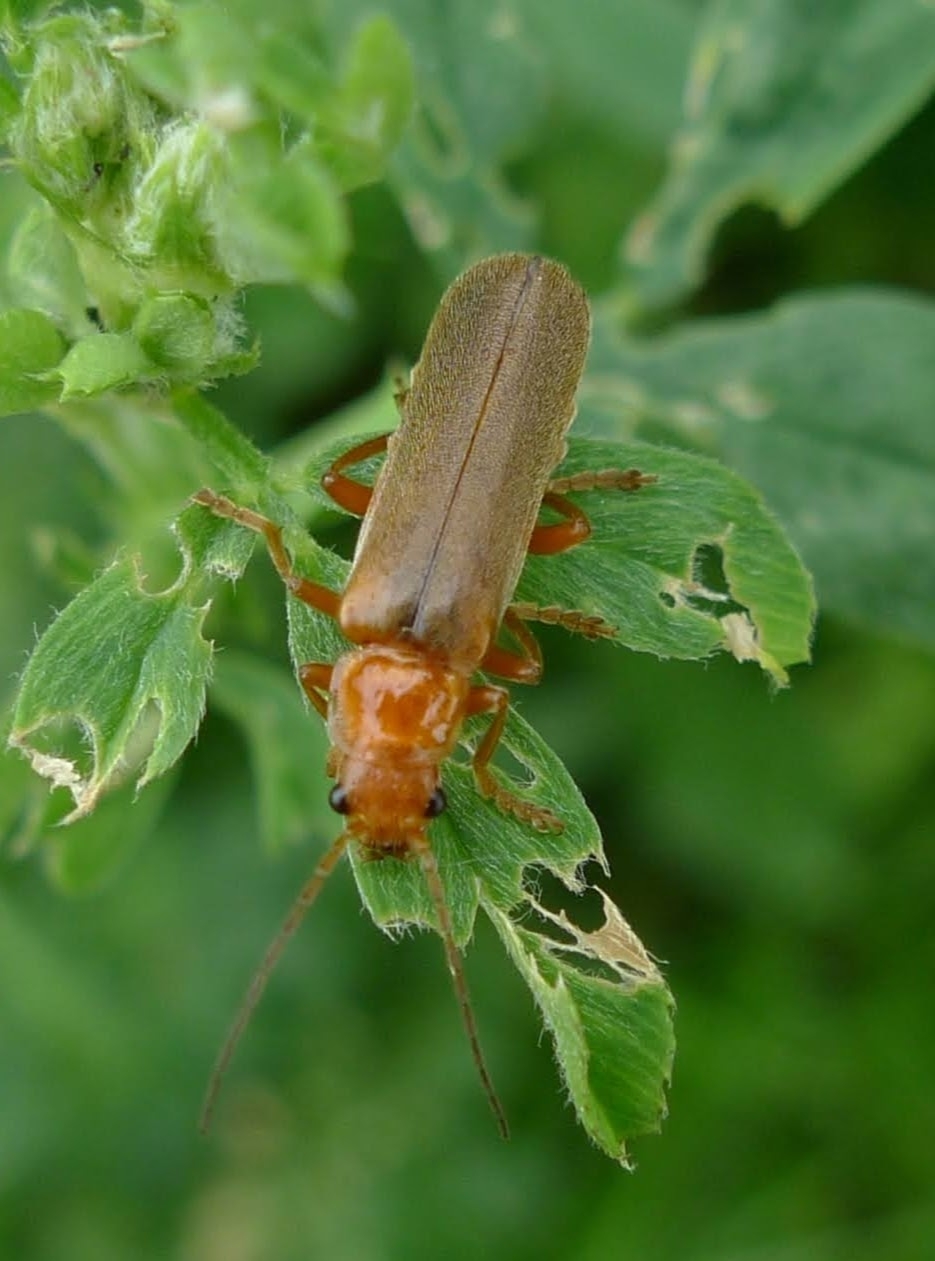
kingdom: Animalia
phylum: Arthropoda
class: Insecta
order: Coleoptera
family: Cantharidae
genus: Cantharis
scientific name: Cantharis rufa
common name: Red-spotted soldier beetle
